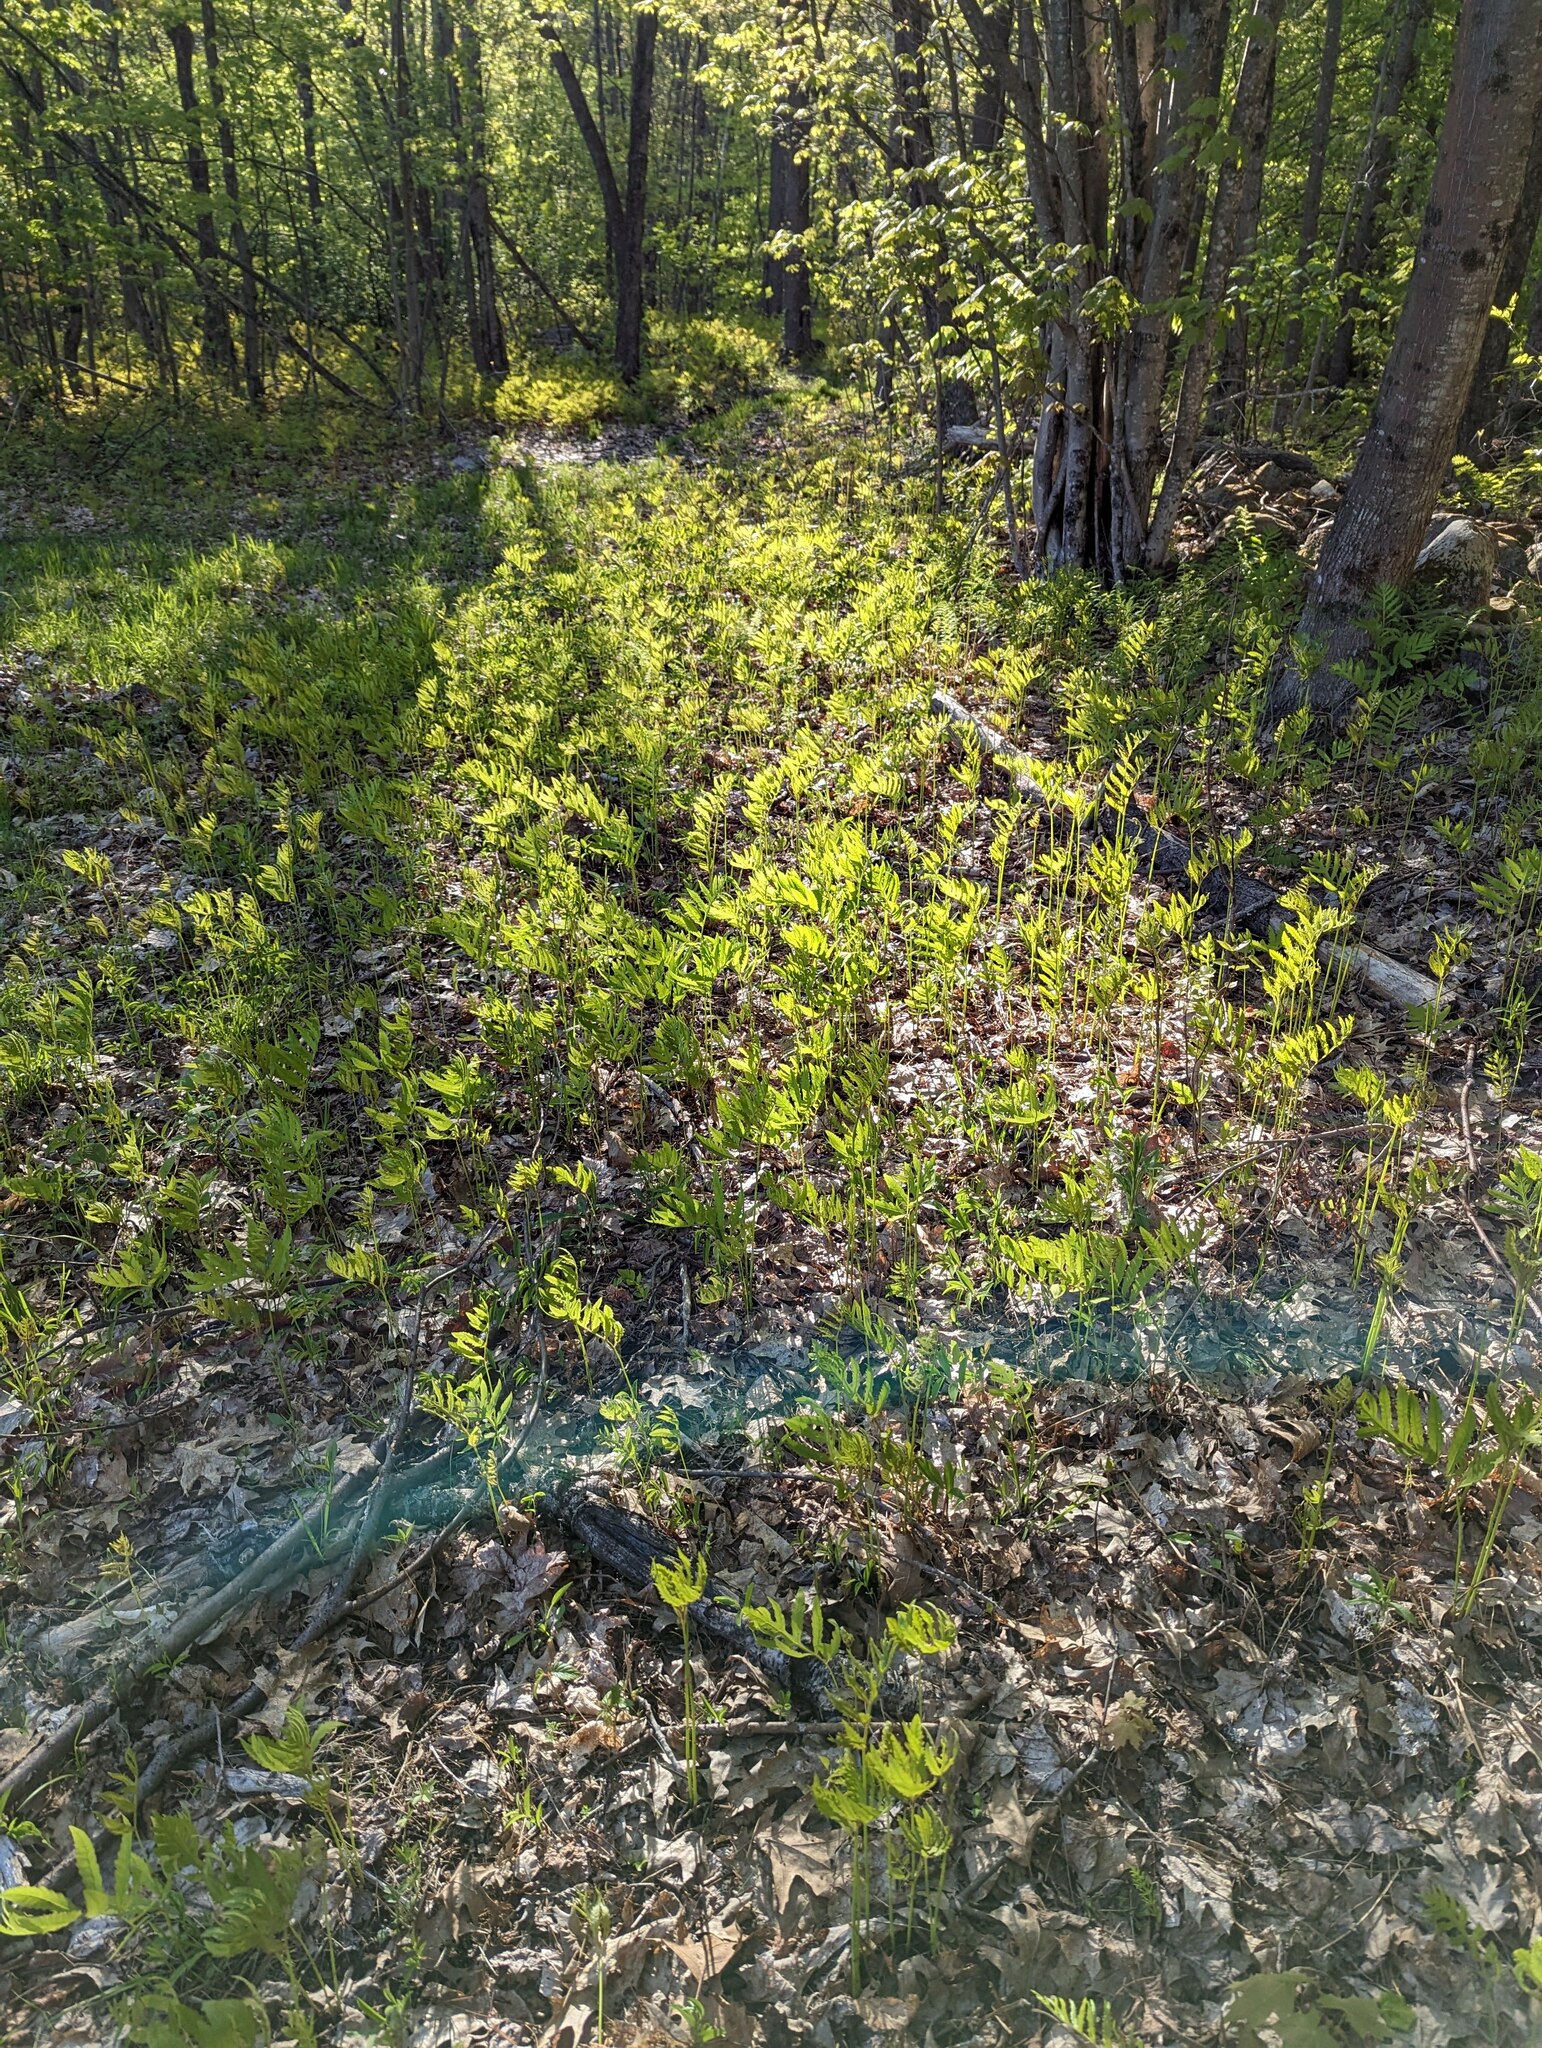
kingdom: Plantae
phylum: Tracheophyta
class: Polypodiopsida
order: Polypodiales
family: Onocleaceae
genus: Onoclea
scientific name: Onoclea sensibilis
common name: Sensitive fern
